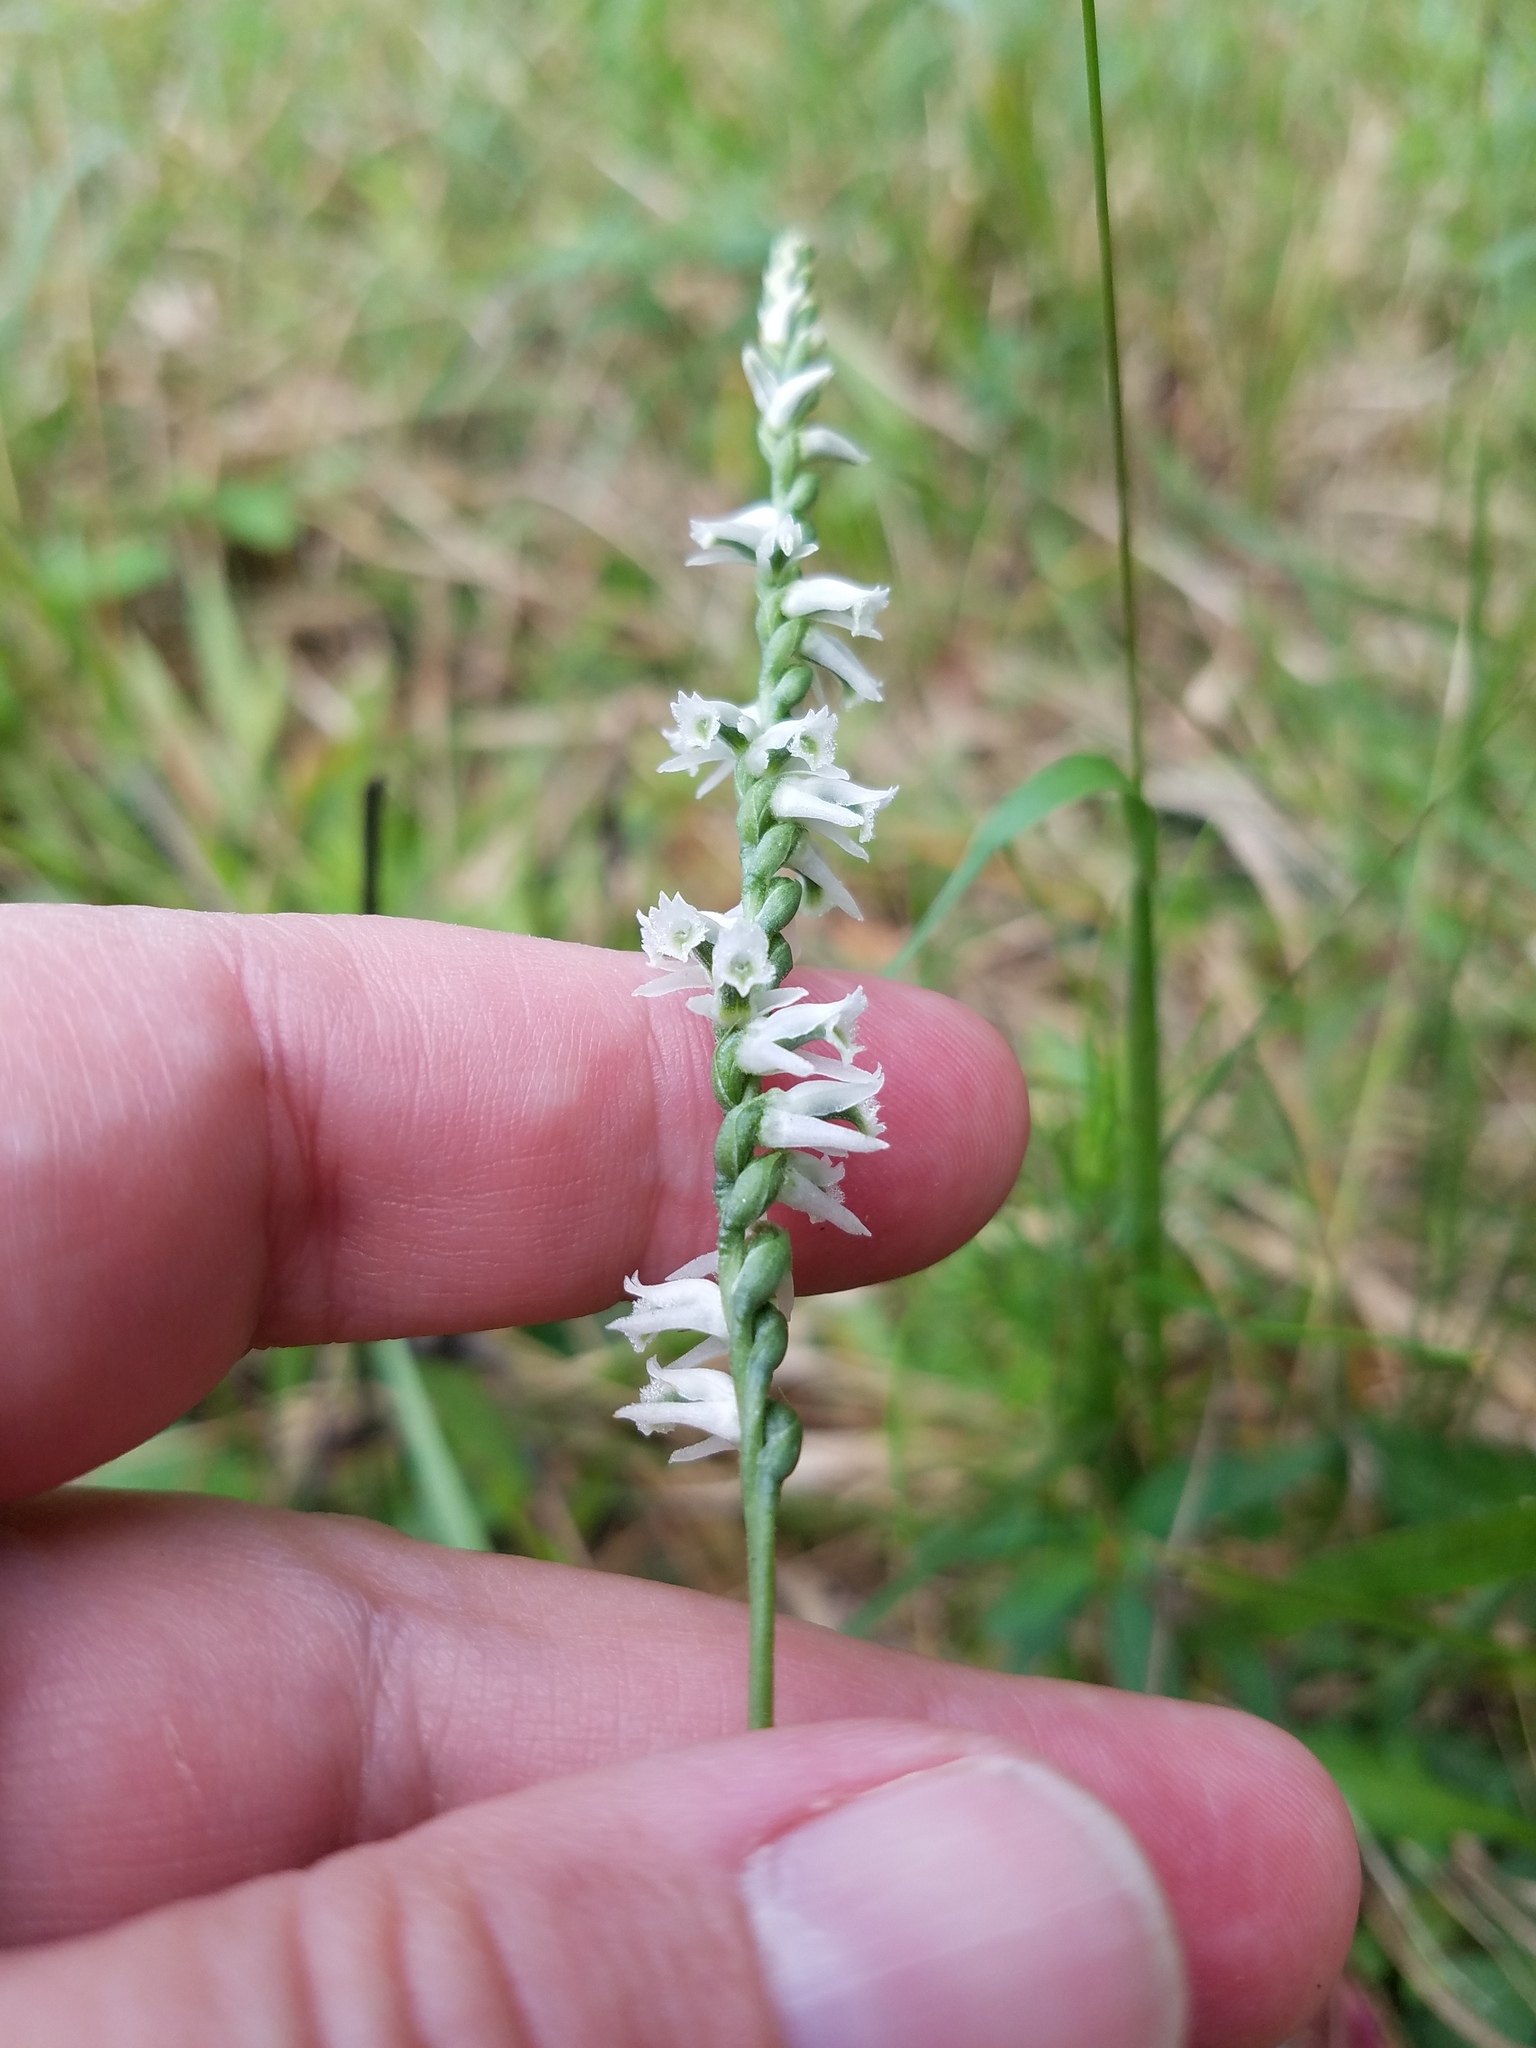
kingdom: Plantae
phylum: Tracheophyta
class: Liliopsida
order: Asparagales
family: Orchidaceae
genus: Spiranthes
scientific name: Spiranthes lacera
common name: Northern slender ladies'-tresses
